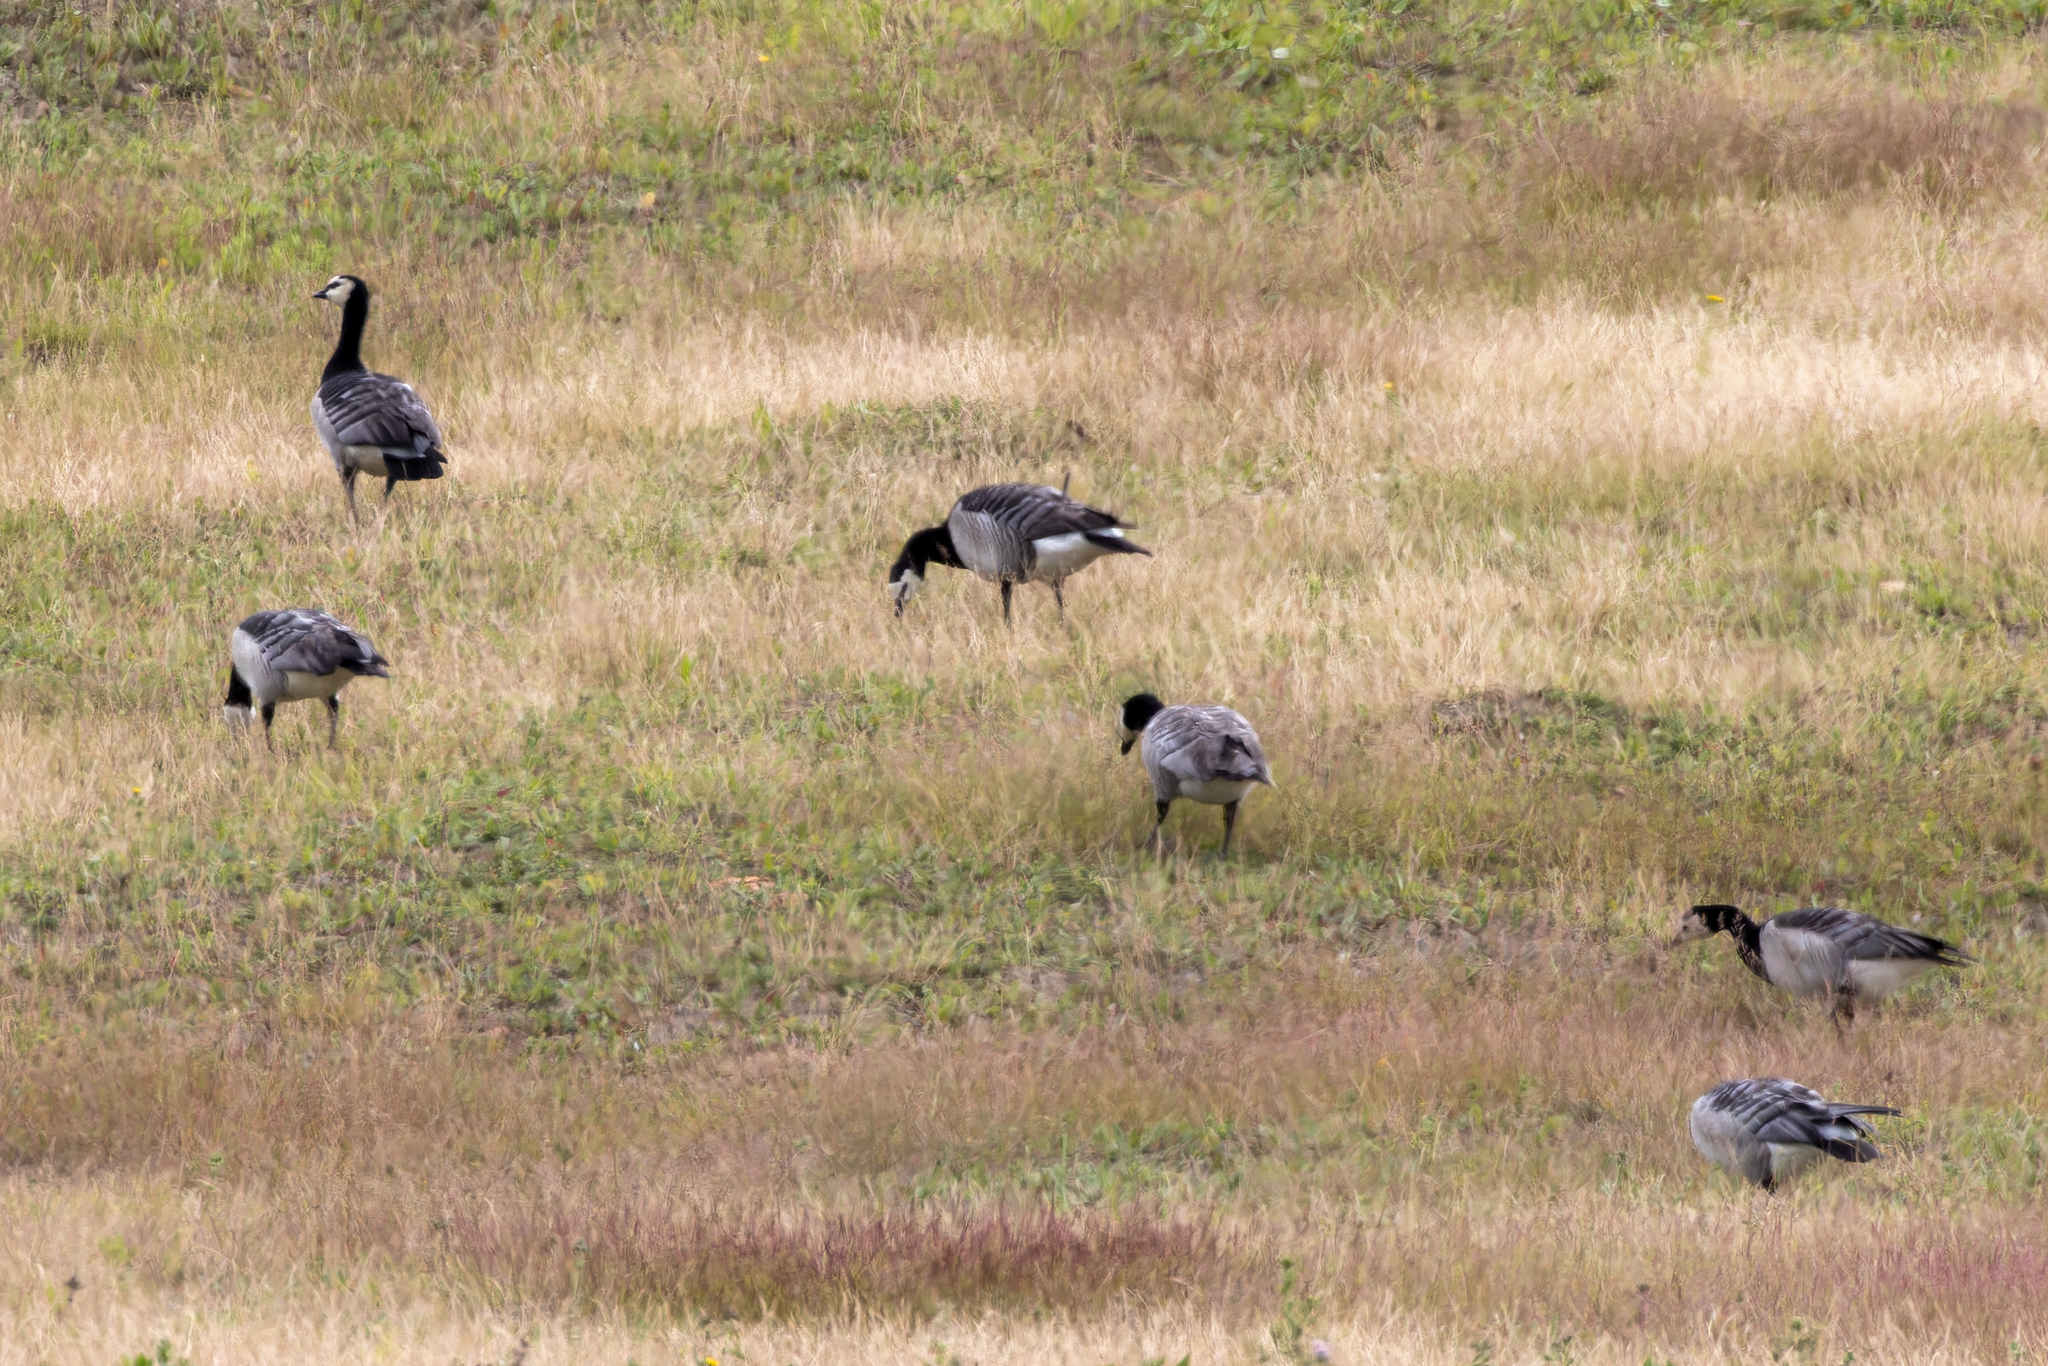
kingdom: Animalia
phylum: Chordata
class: Aves
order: Anseriformes
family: Anatidae
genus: Branta
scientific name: Branta leucopsis
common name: Barnacle goose
